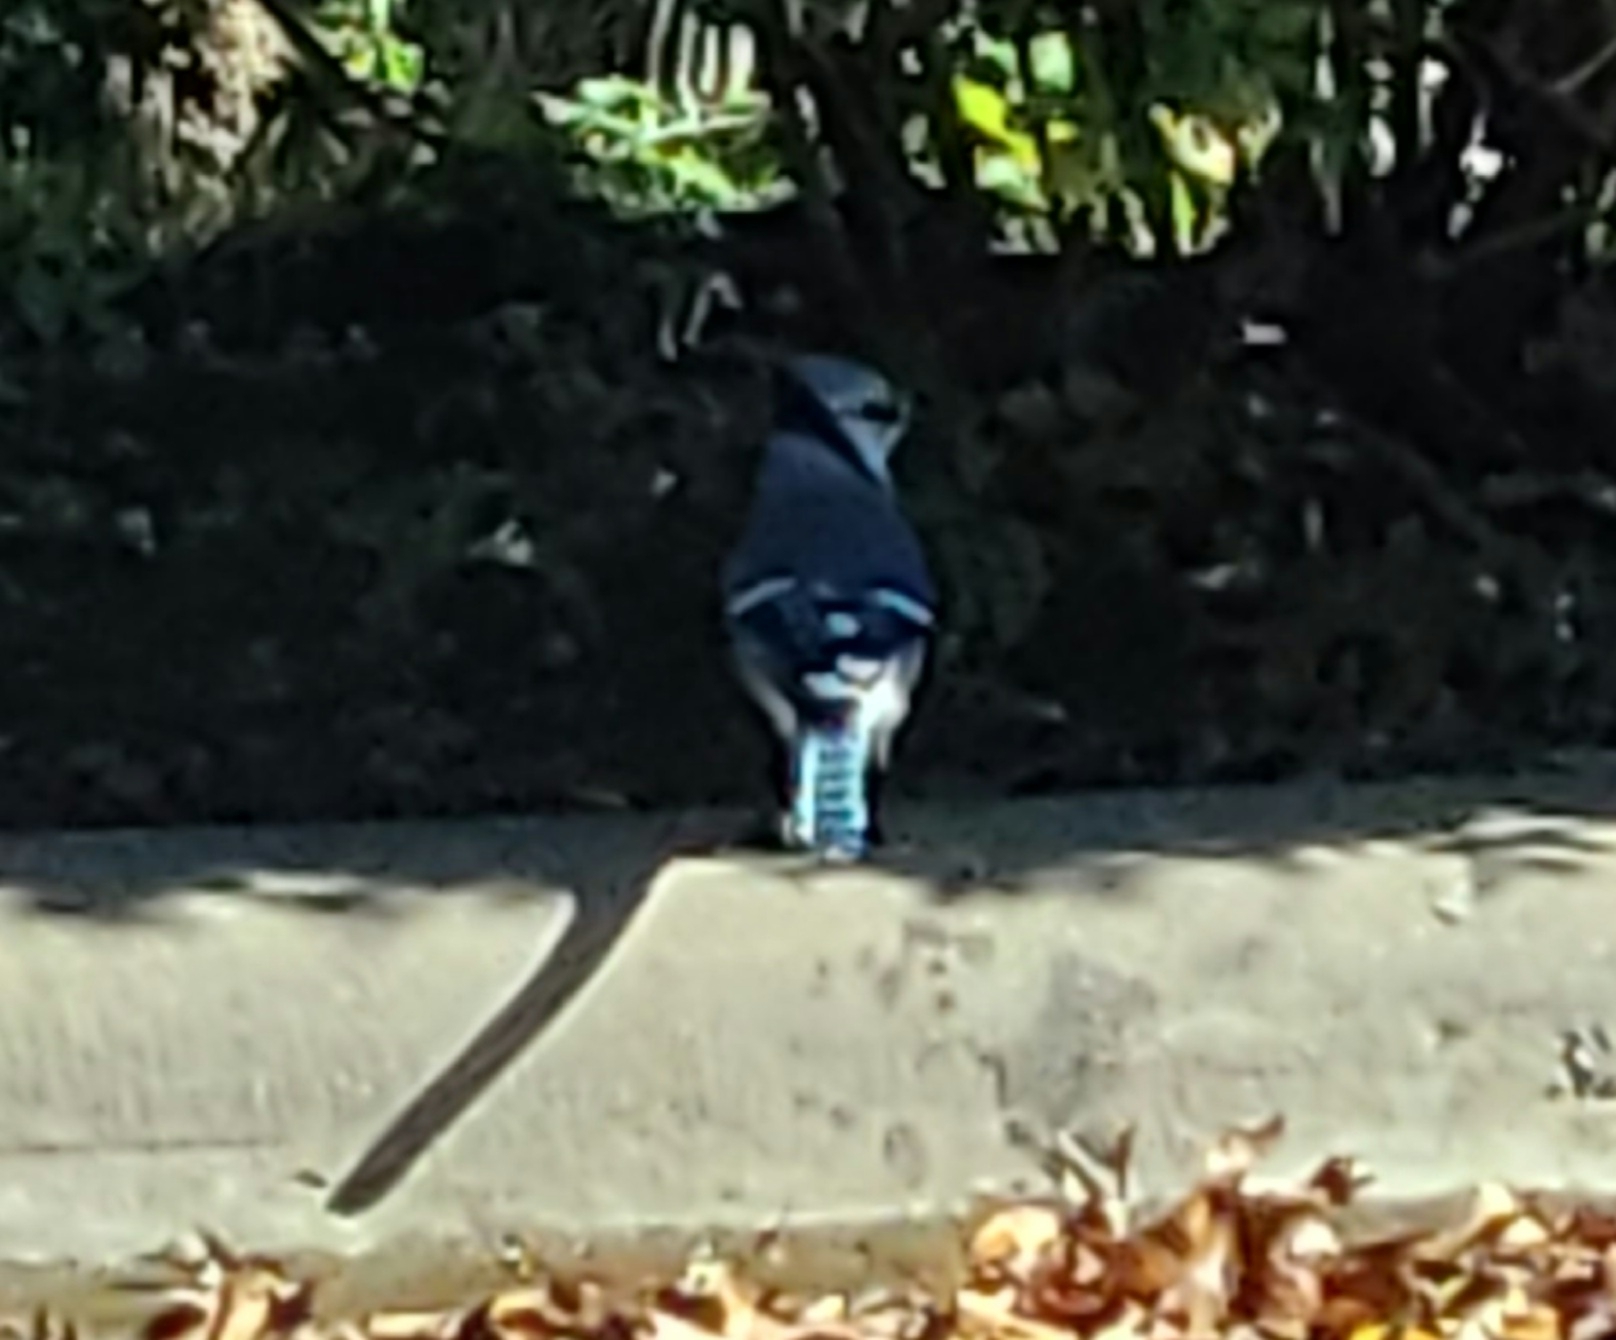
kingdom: Animalia
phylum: Chordata
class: Aves
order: Passeriformes
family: Corvidae
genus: Cyanocitta
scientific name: Cyanocitta cristata
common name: Blue jay
